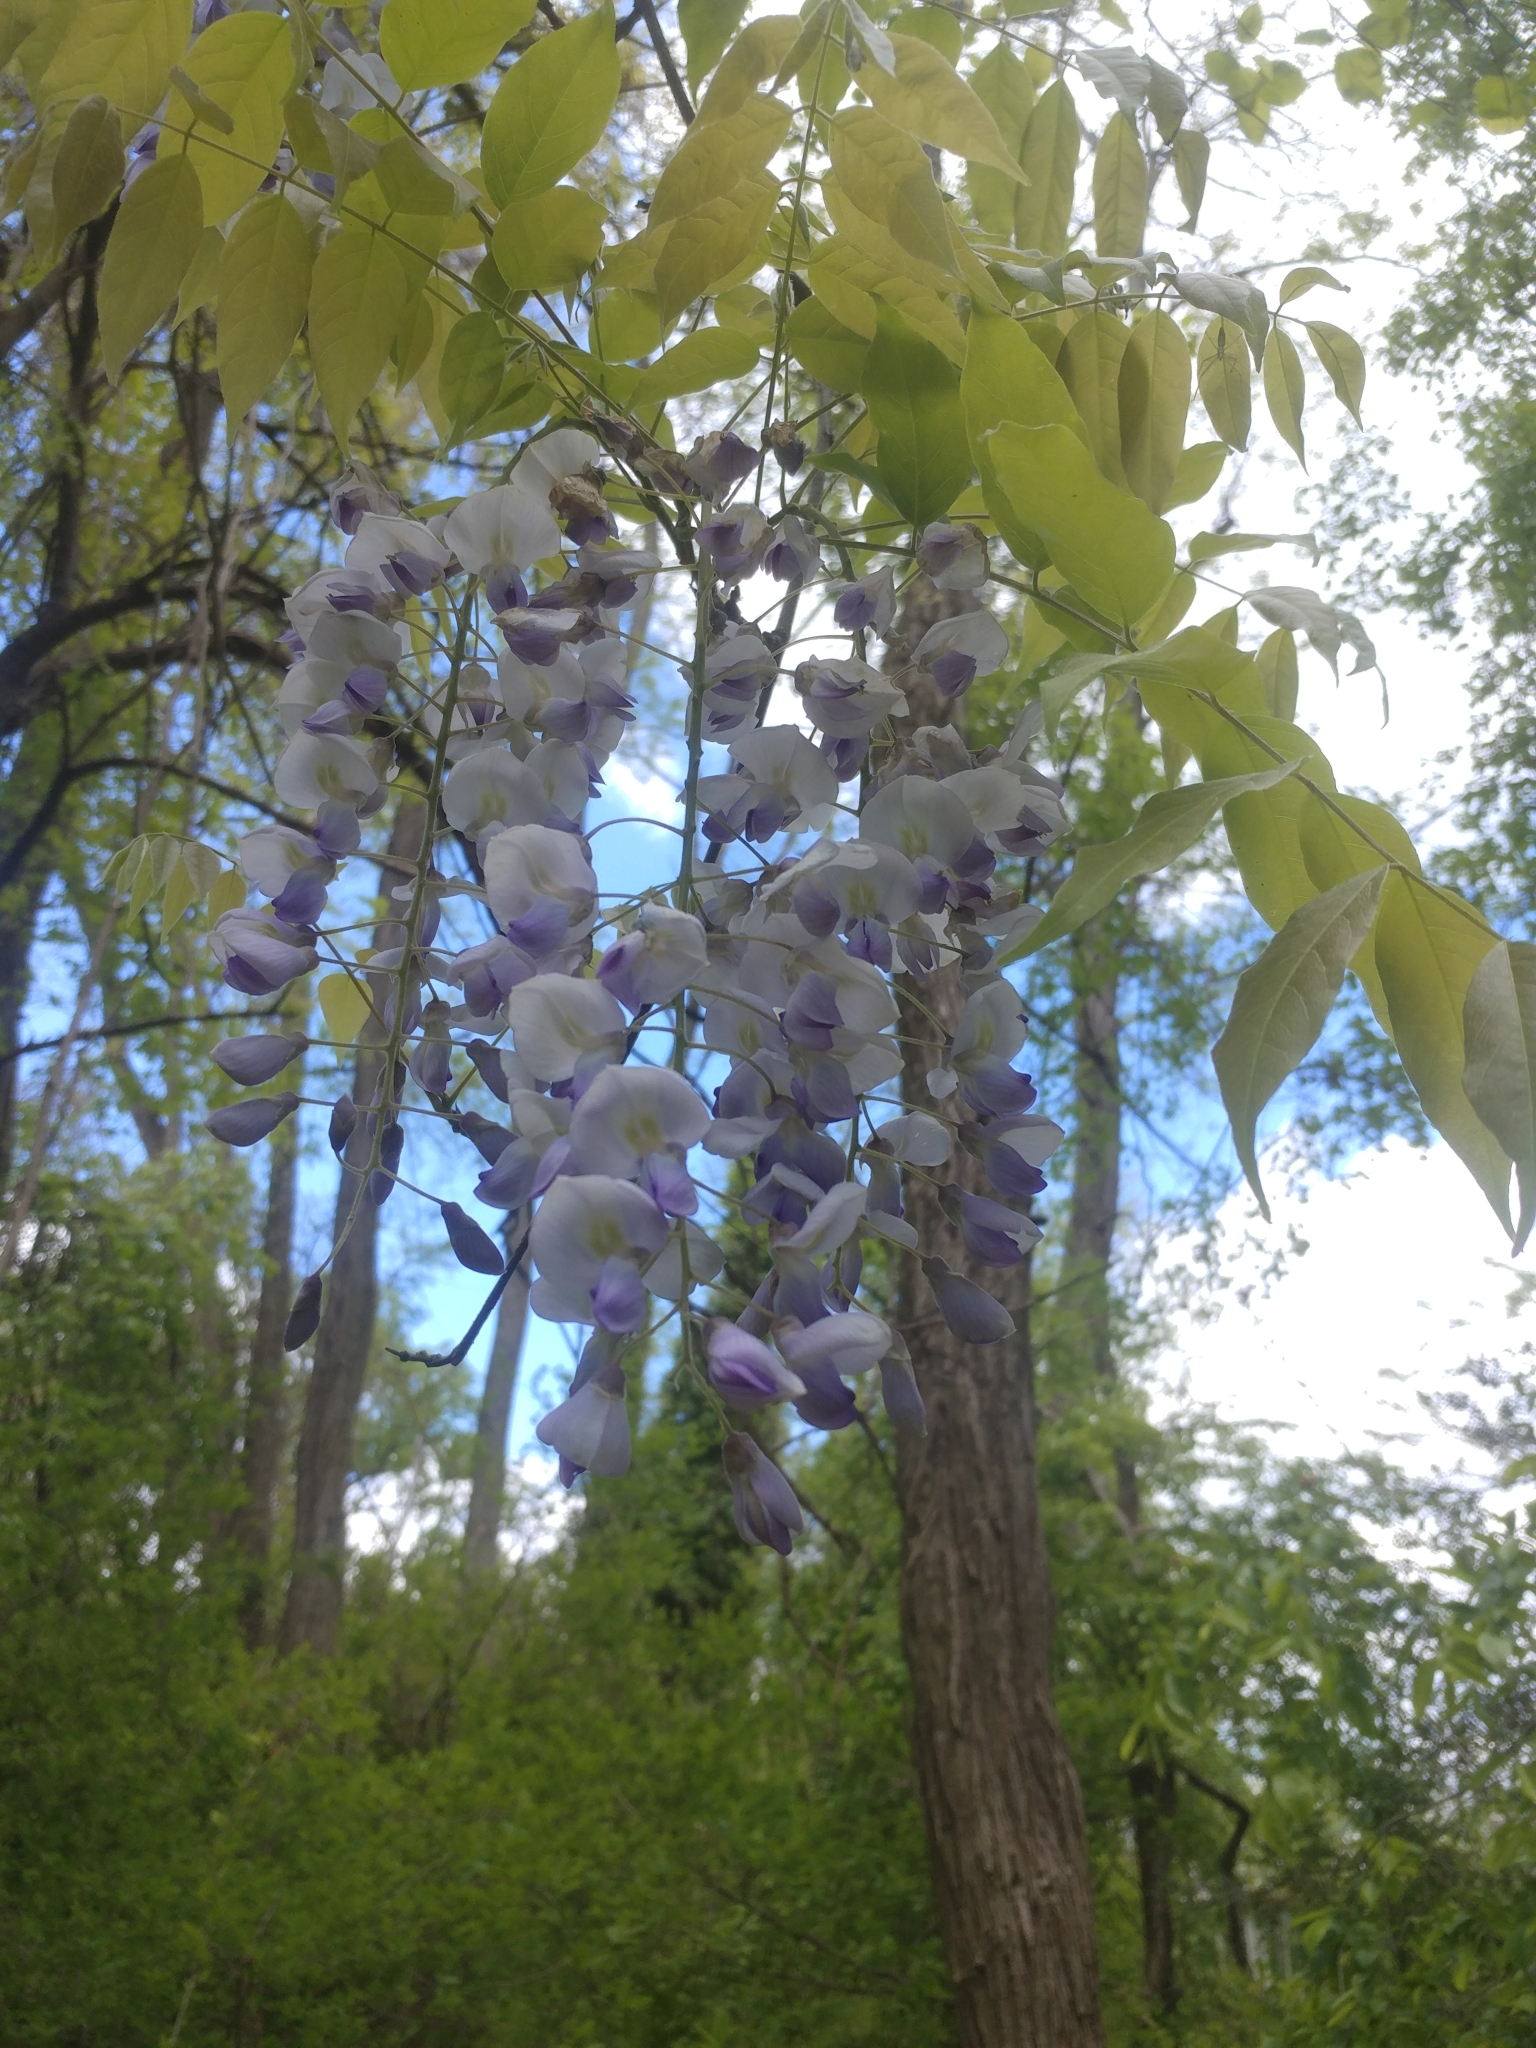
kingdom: Plantae
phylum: Tracheophyta
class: Magnoliopsida
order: Fabales
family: Fabaceae
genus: Wisteria
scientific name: Wisteria sinensis
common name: Chinese wisteria
